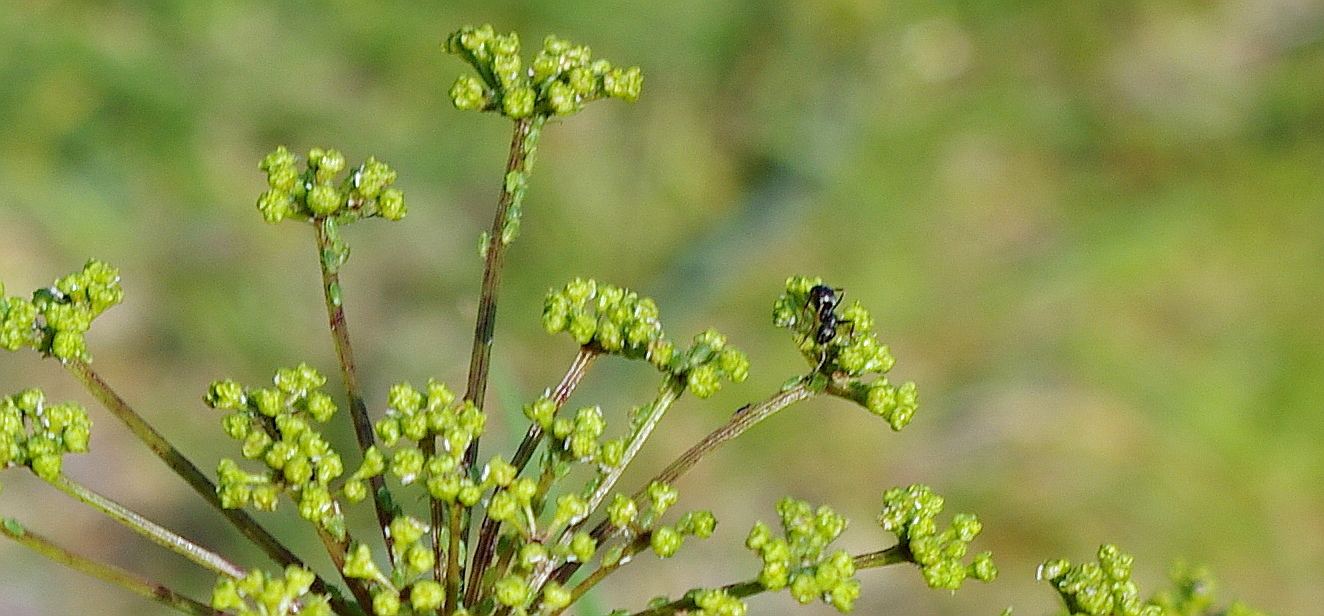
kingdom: Plantae
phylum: Tracheophyta
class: Magnoliopsida
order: Apiales
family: Apiaceae
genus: Heracleum
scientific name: Heracleum sphondylium
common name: Hogweed
